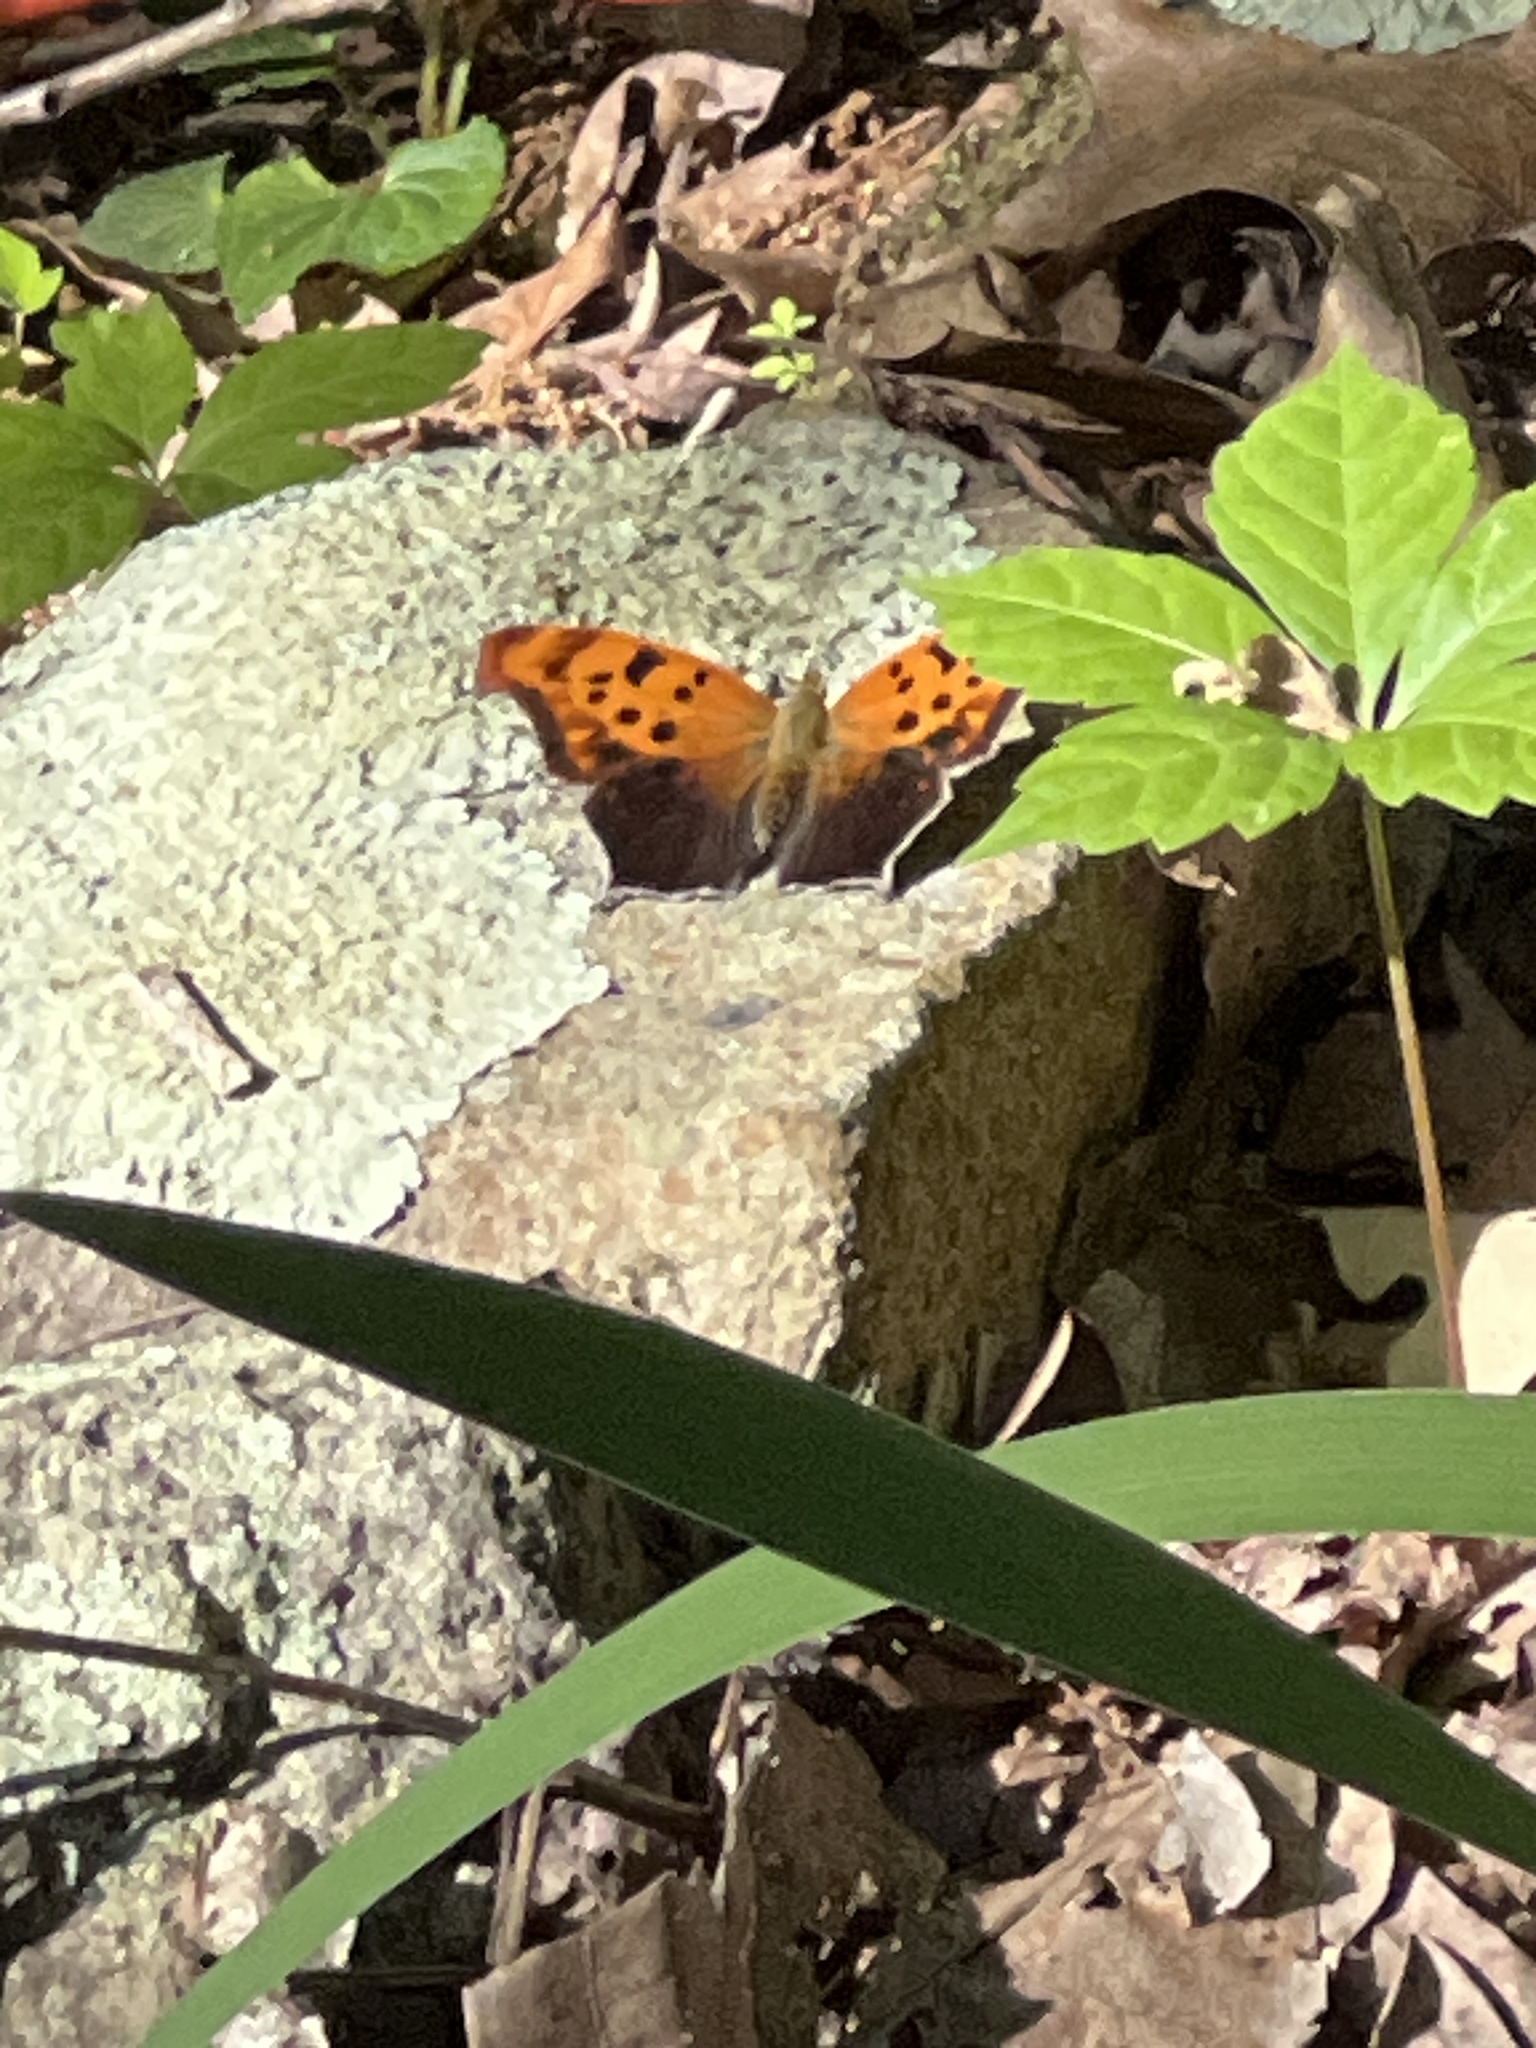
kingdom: Animalia
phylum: Arthropoda
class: Insecta
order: Lepidoptera
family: Nymphalidae
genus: Polygonia
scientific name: Polygonia interrogationis
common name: Question mark
